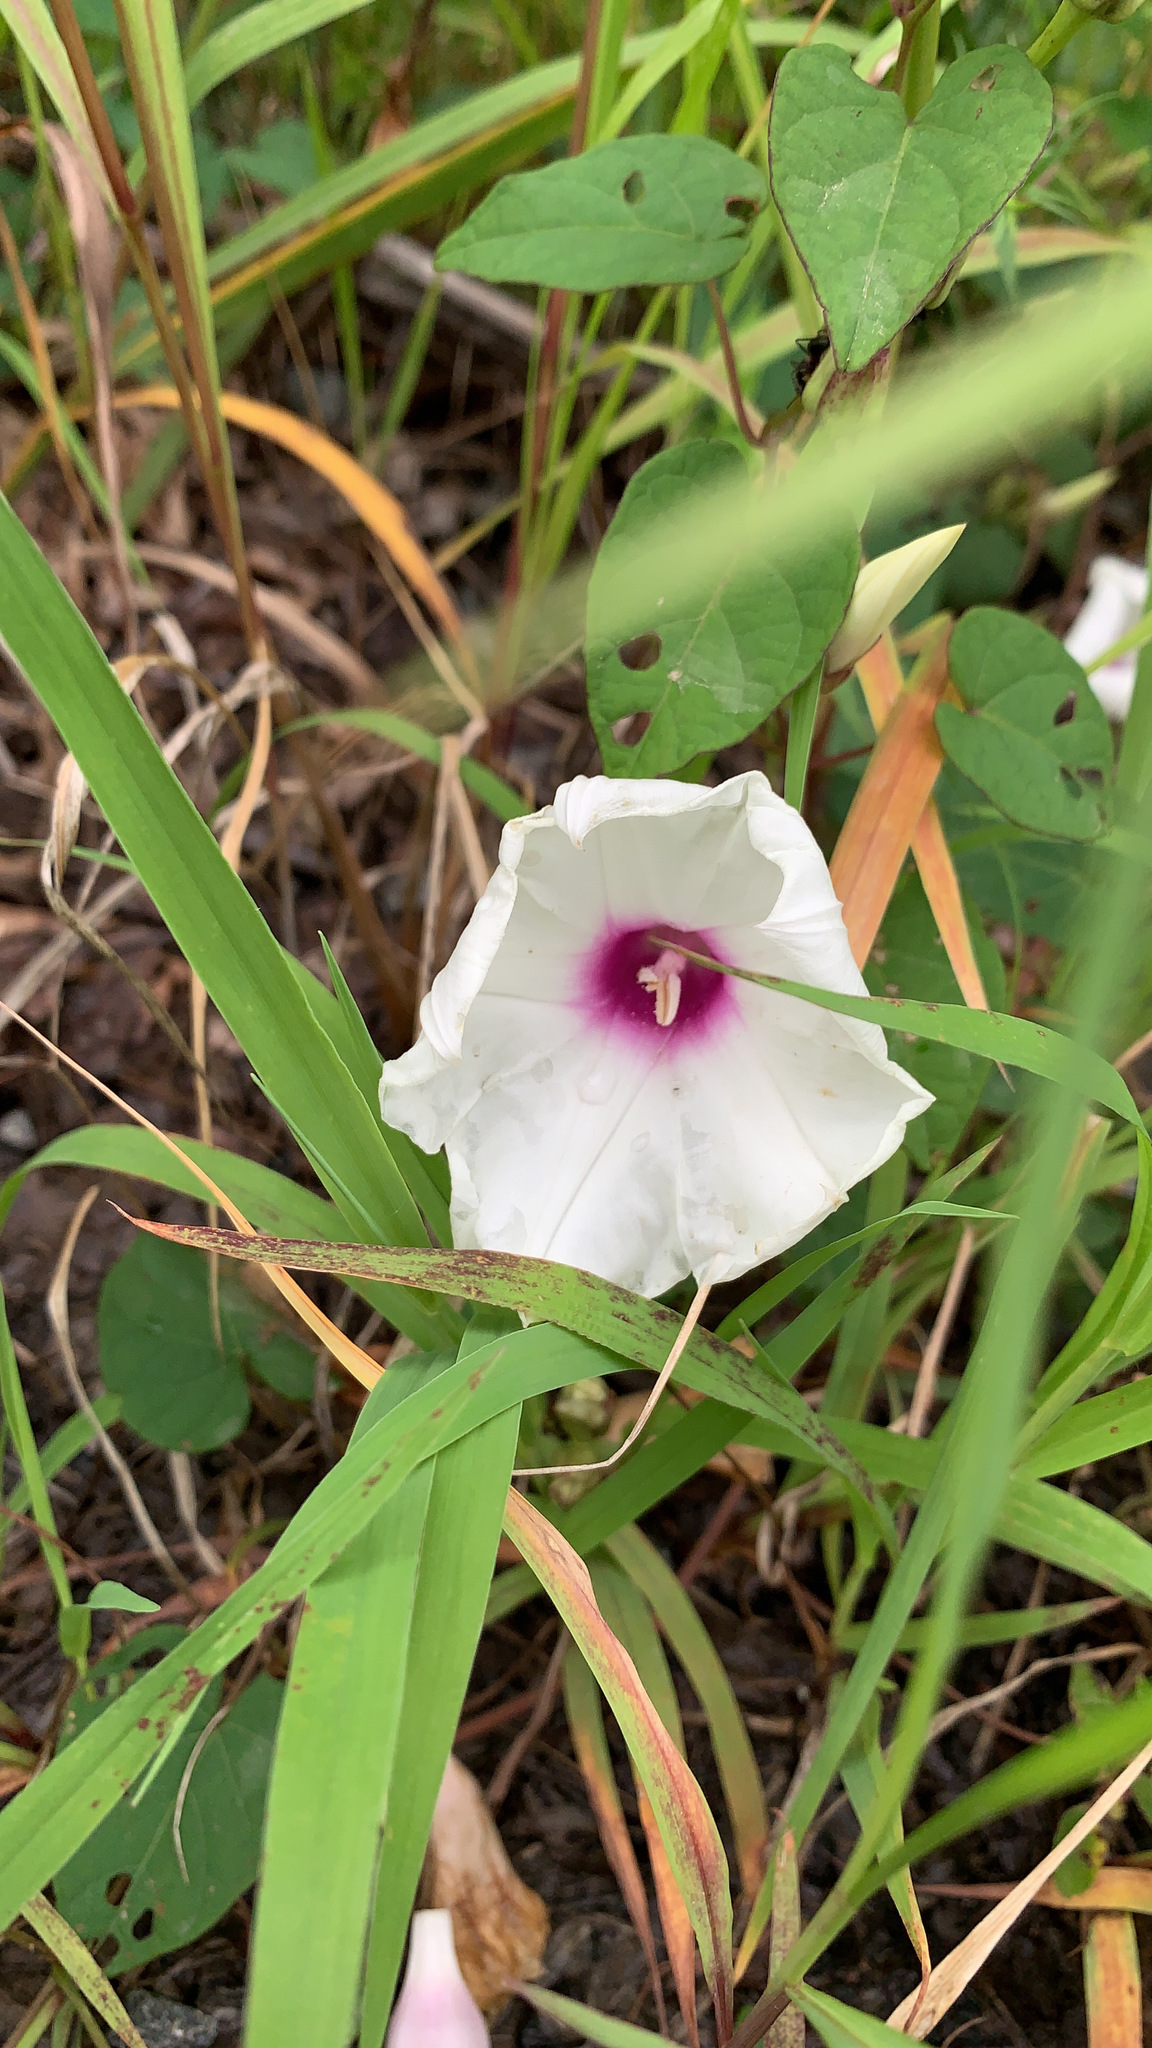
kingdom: Plantae
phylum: Tracheophyta
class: Magnoliopsida
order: Solanales
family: Convolvulaceae
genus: Ipomoea
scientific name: Ipomoea pandurata
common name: Man-of-the-earth
